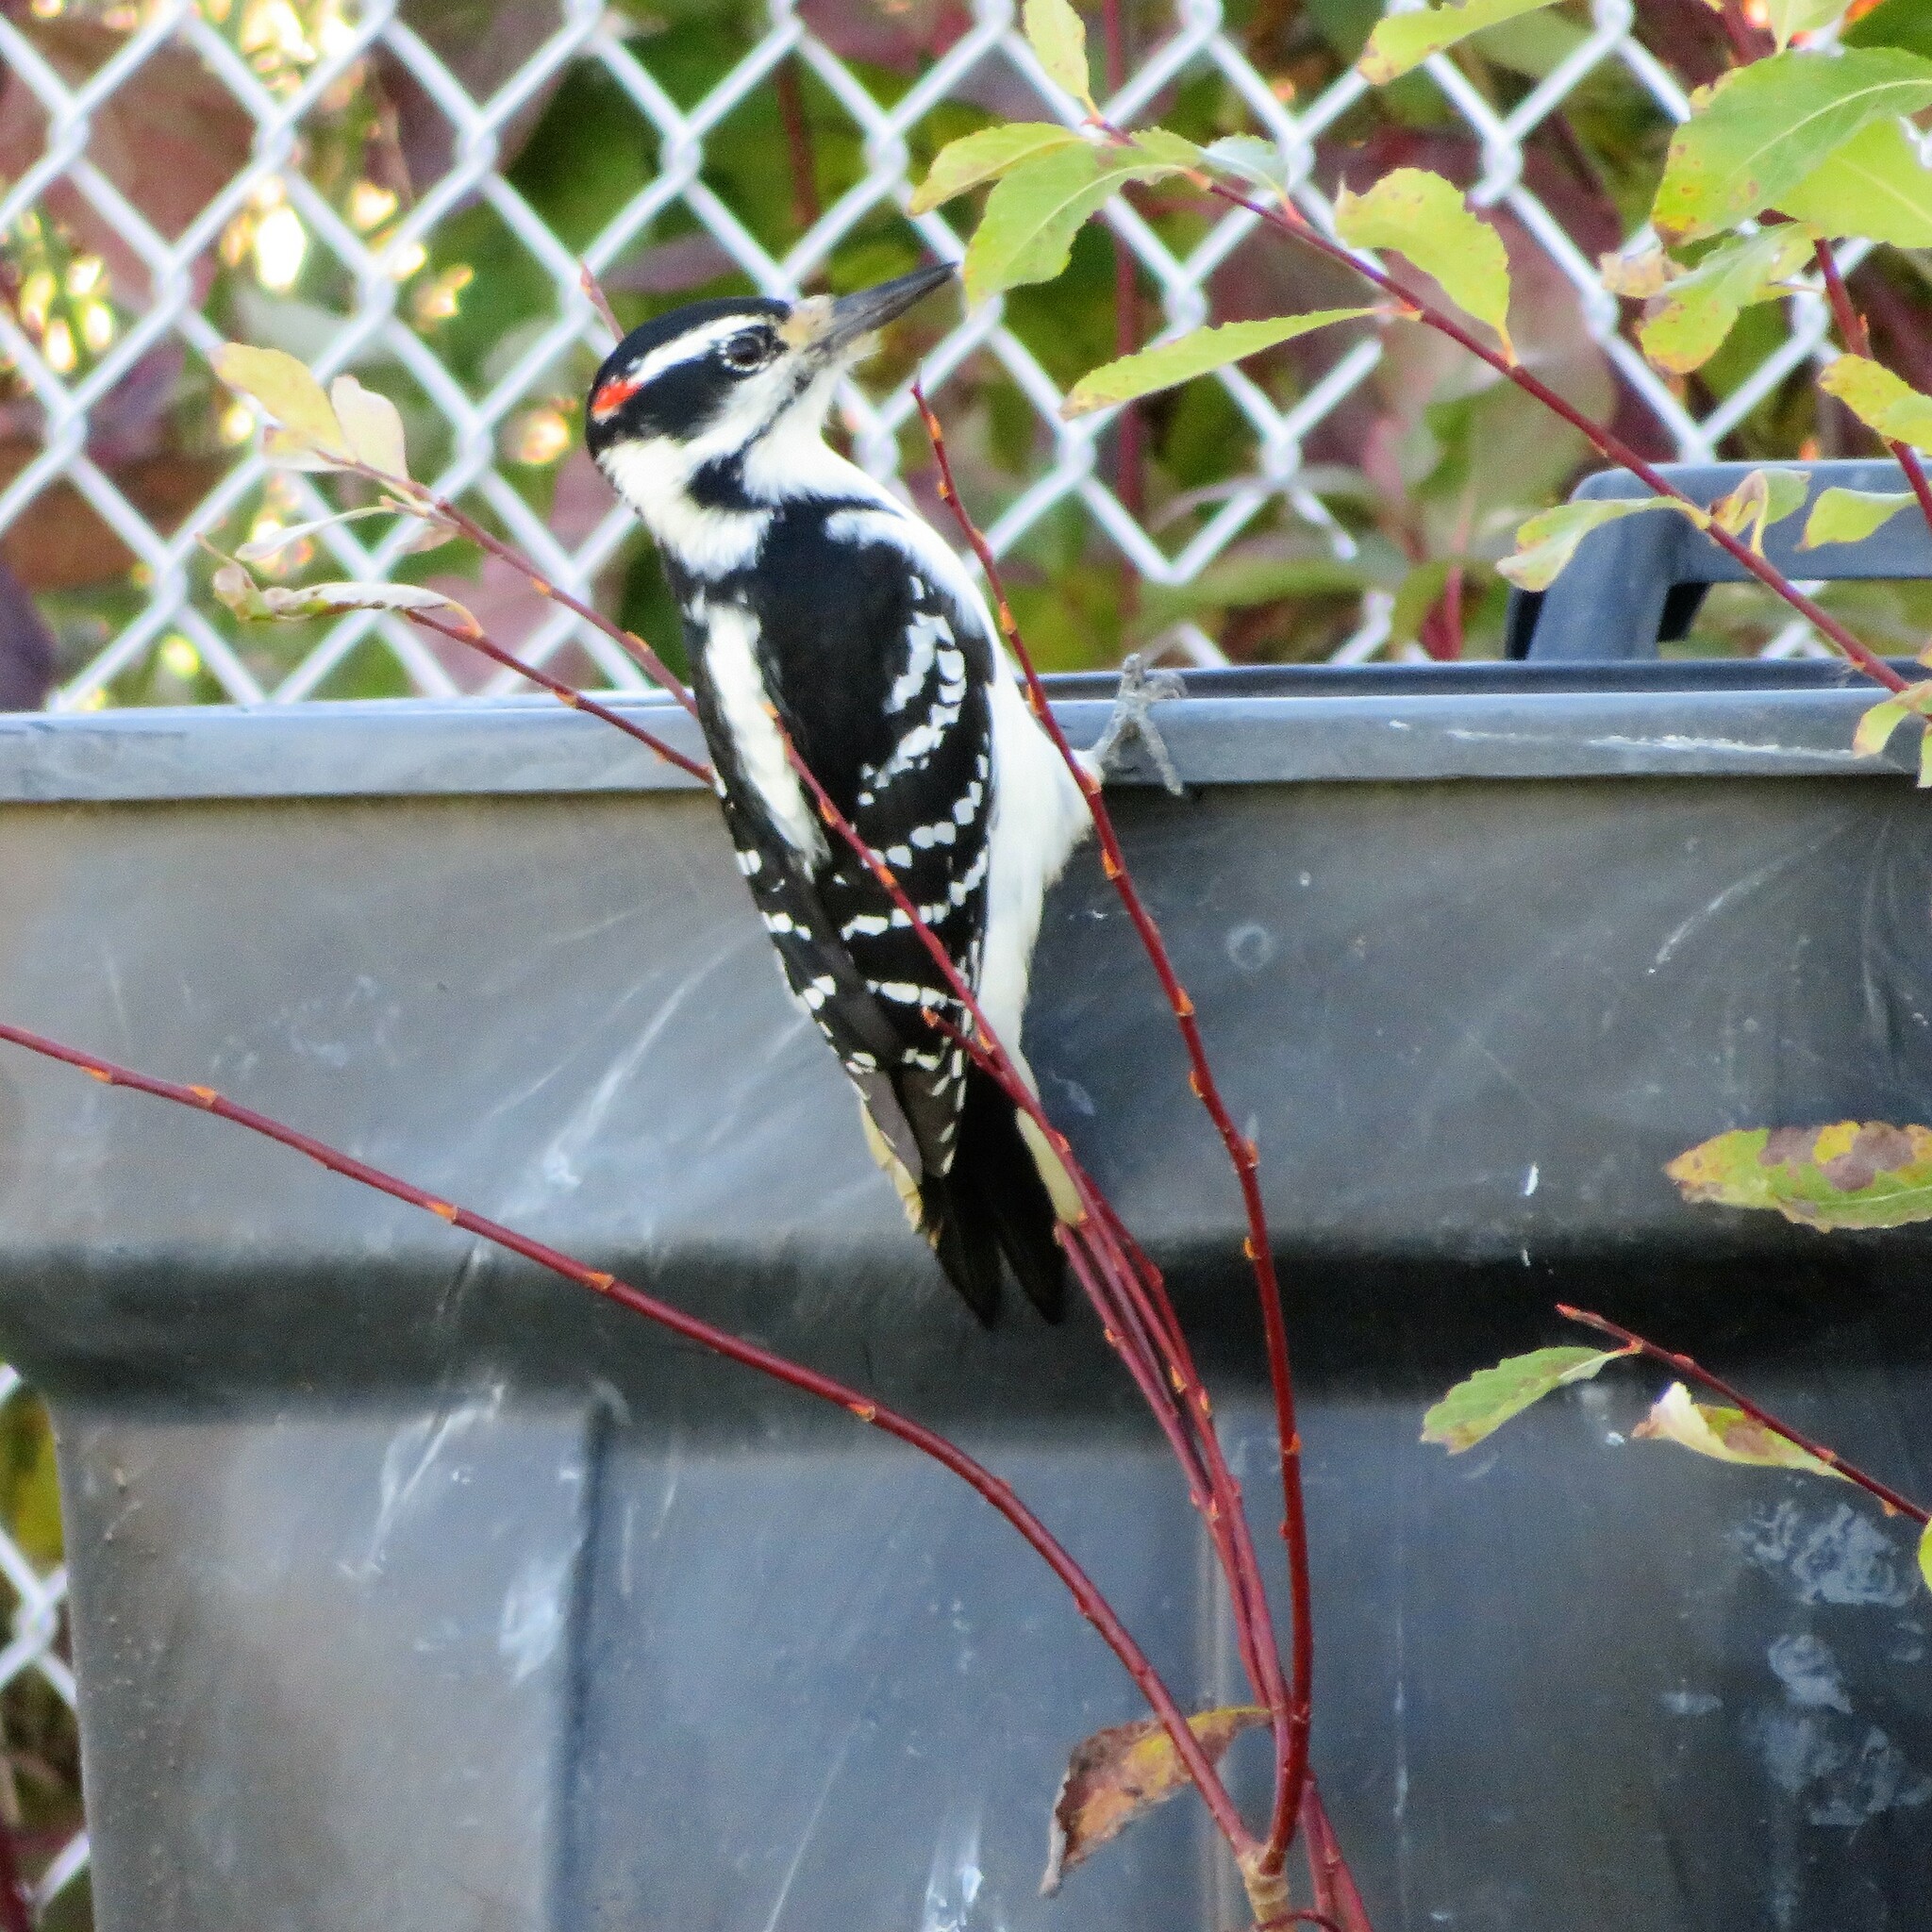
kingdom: Animalia
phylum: Chordata
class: Aves
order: Piciformes
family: Picidae
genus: Leuconotopicus
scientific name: Leuconotopicus villosus
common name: Hairy woodpecker
